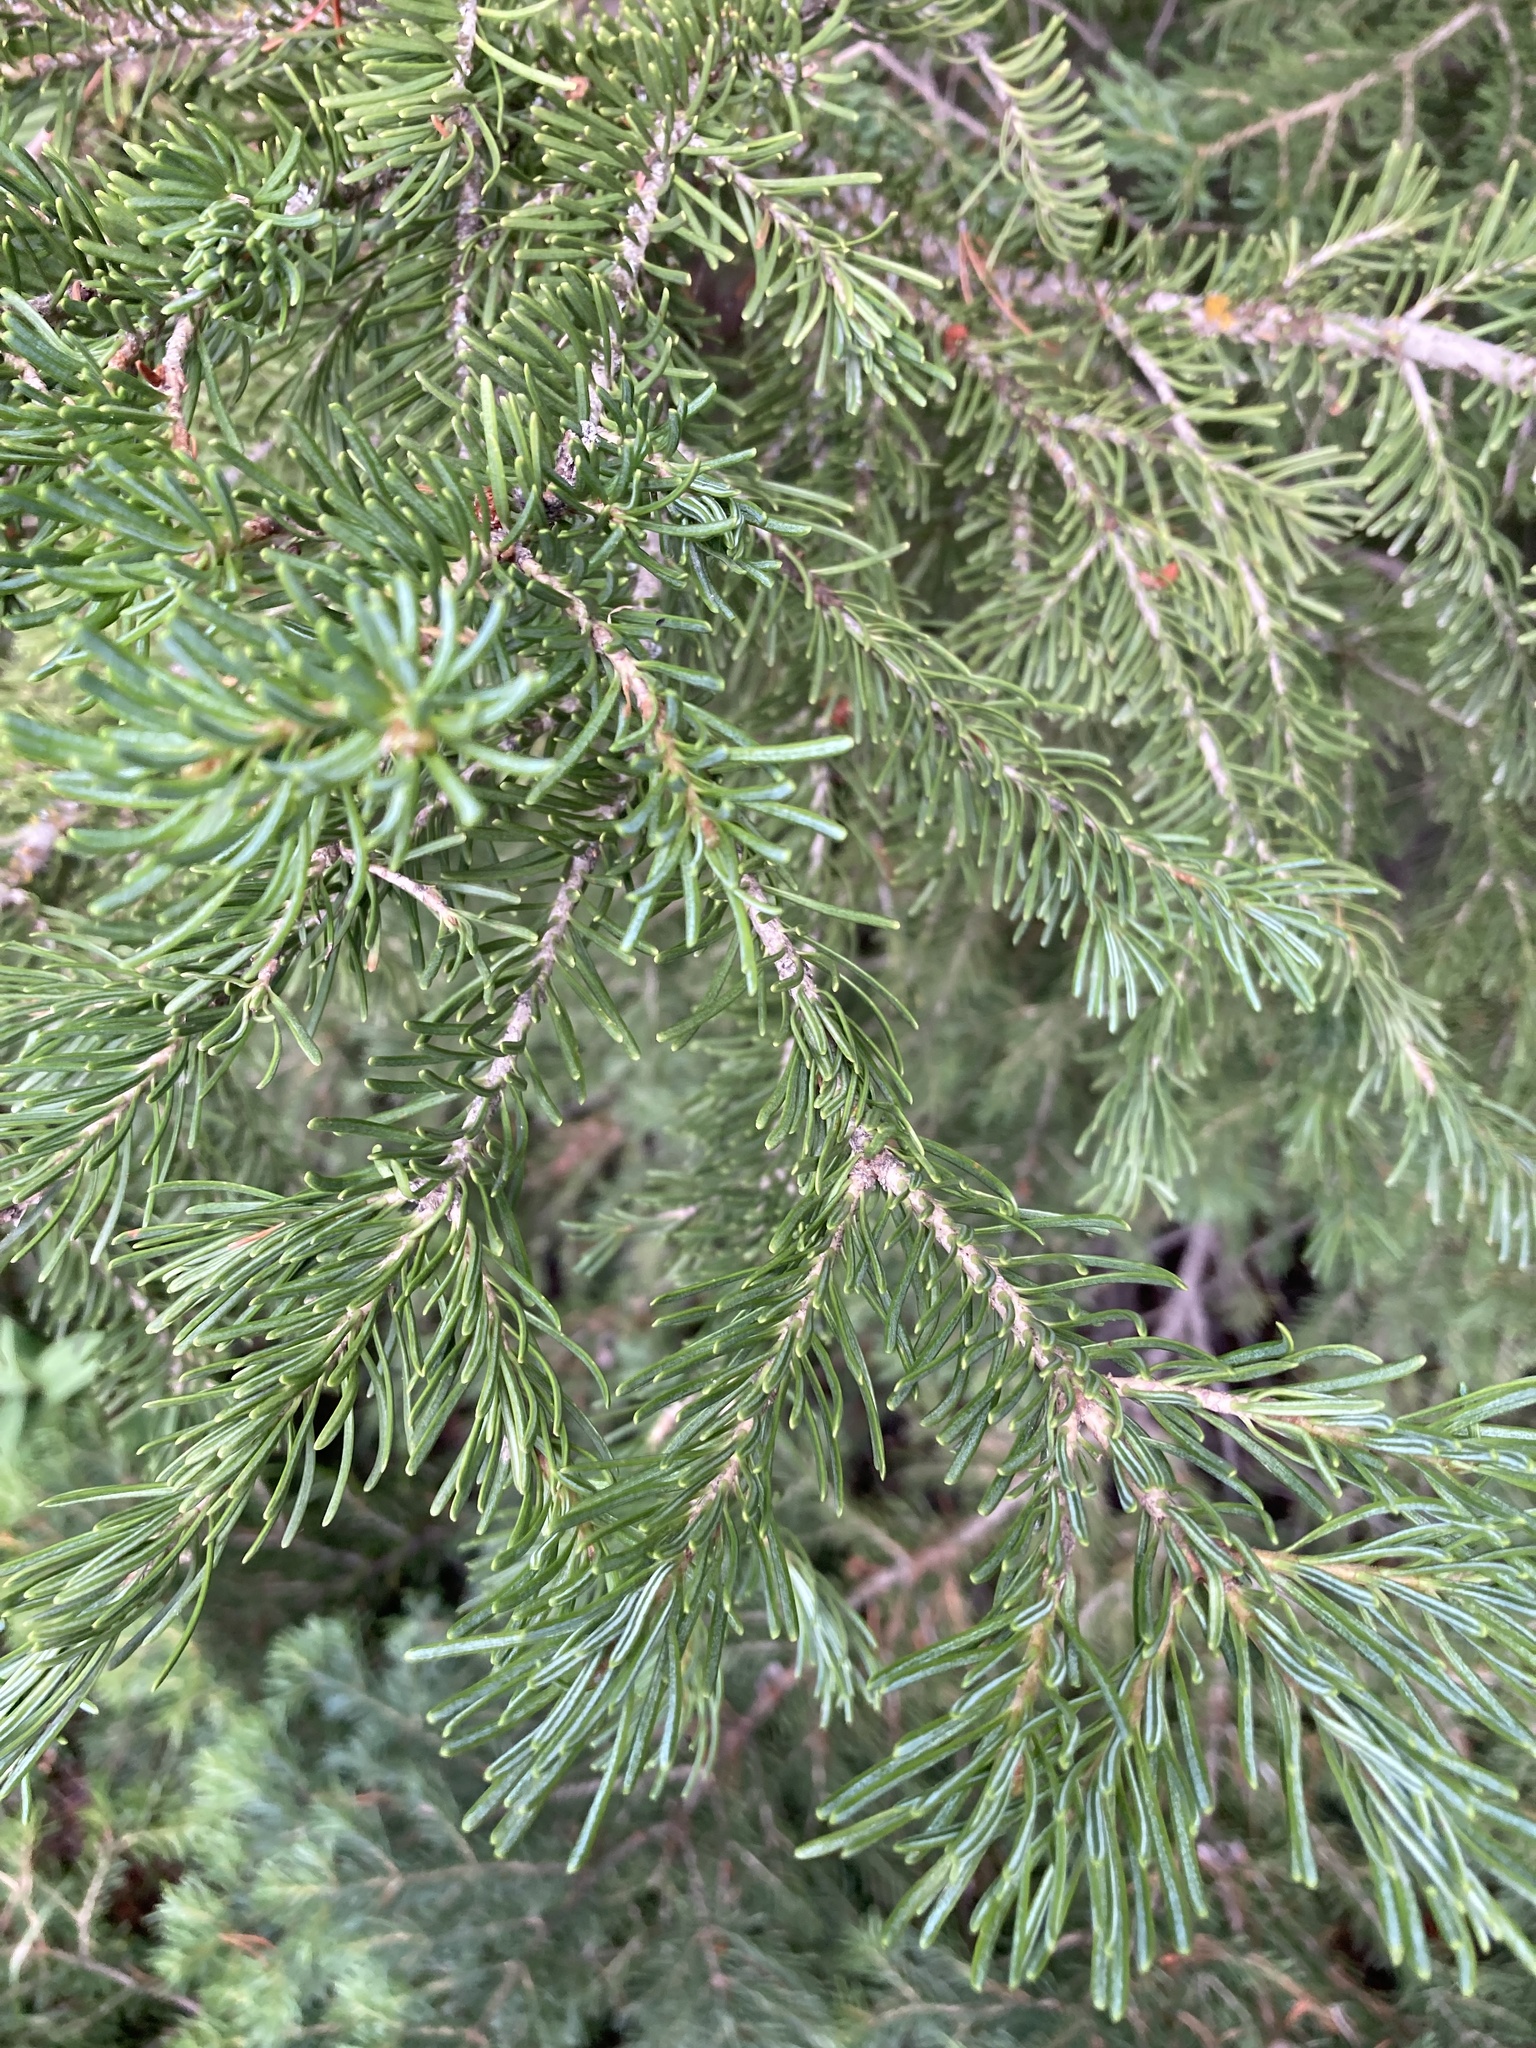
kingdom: Plantae
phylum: Tracheophyta
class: Pinopsida
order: Pinales
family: Pinaceae
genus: Abies
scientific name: Abies lasiocarpa
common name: Subalpine fir
